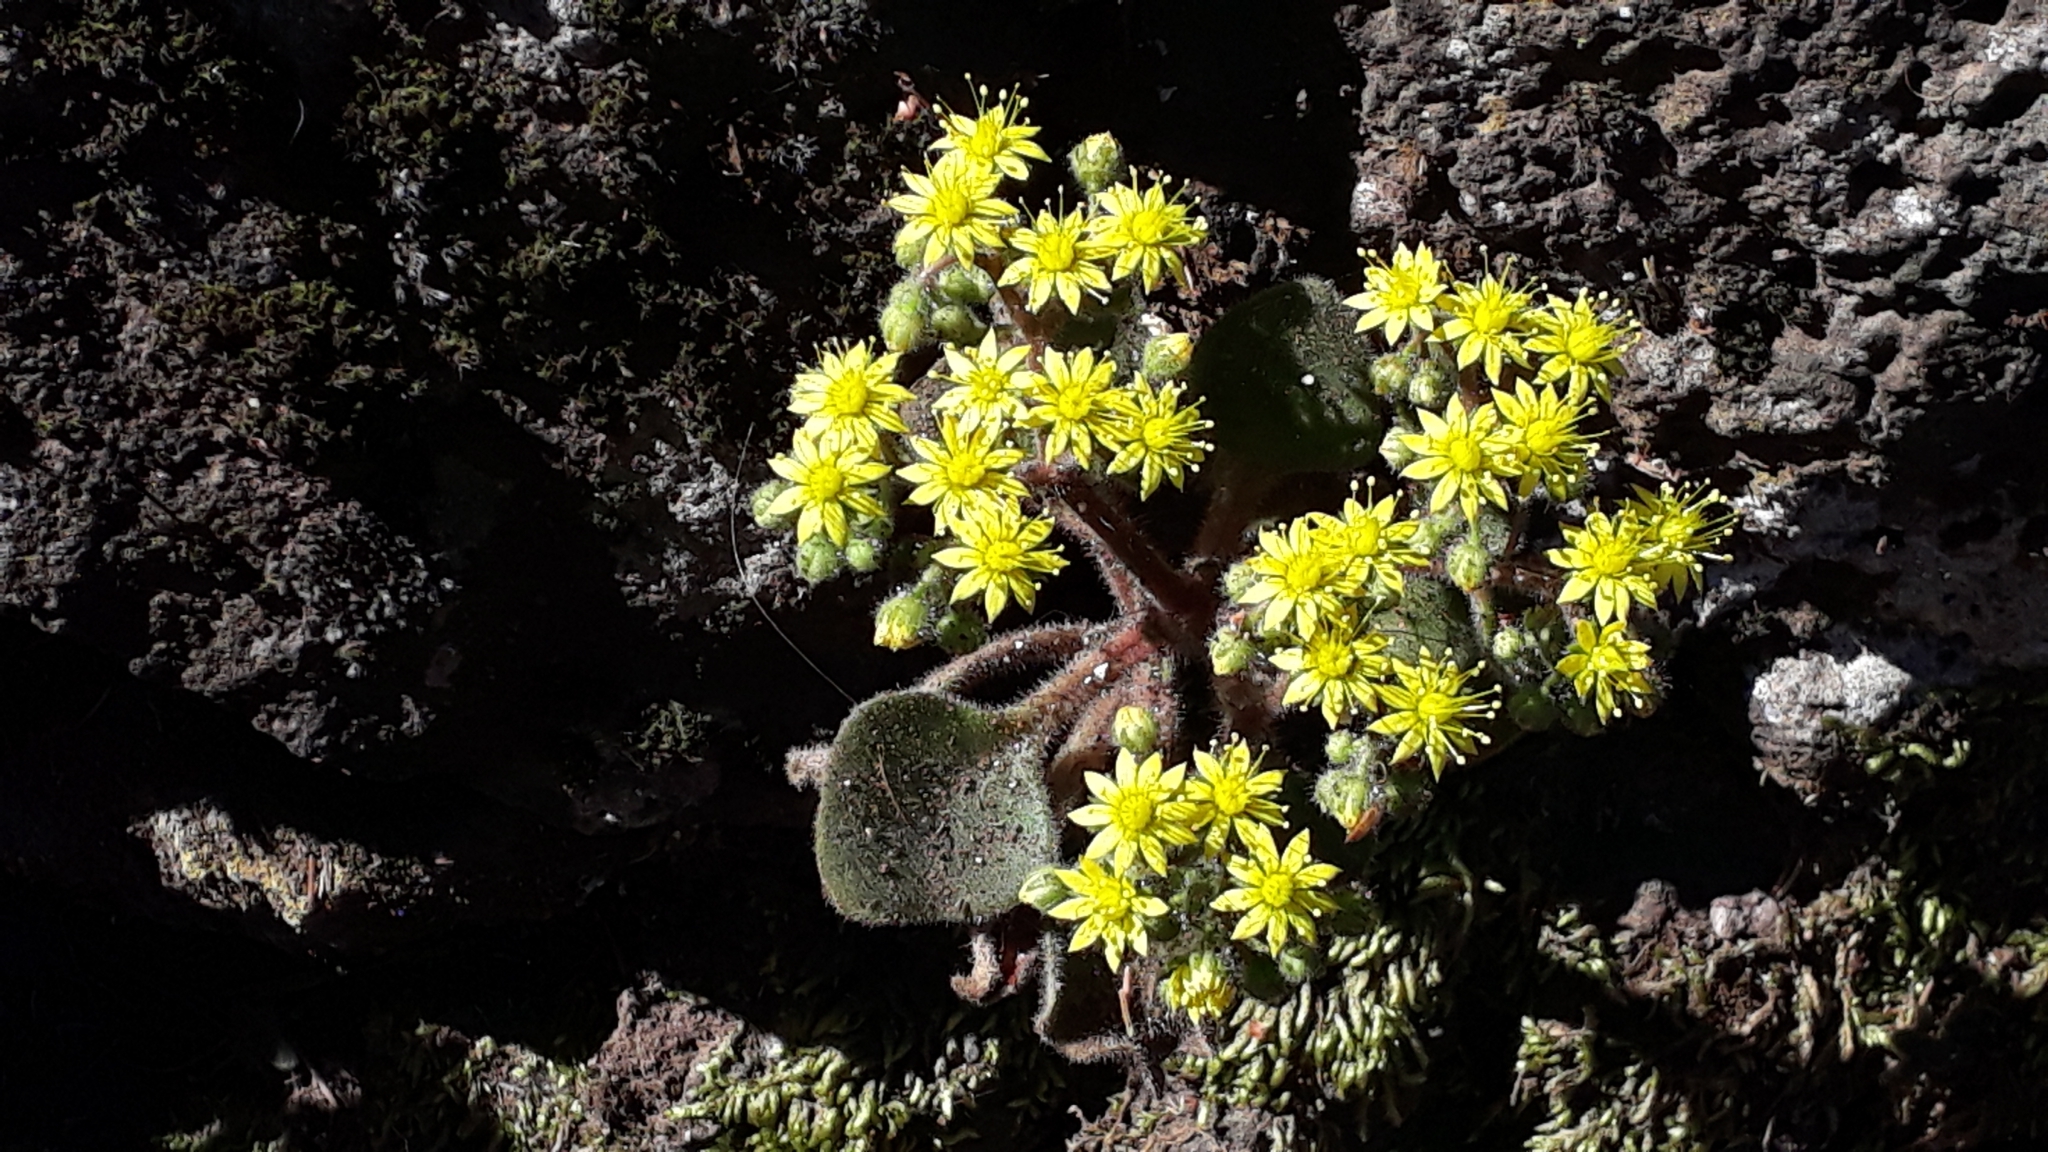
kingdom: Plantae
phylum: Tracheophyta
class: Magnoliopsida
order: Saxifragales
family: Crassulaceae
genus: Aichryson
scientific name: Aichryson laxum
